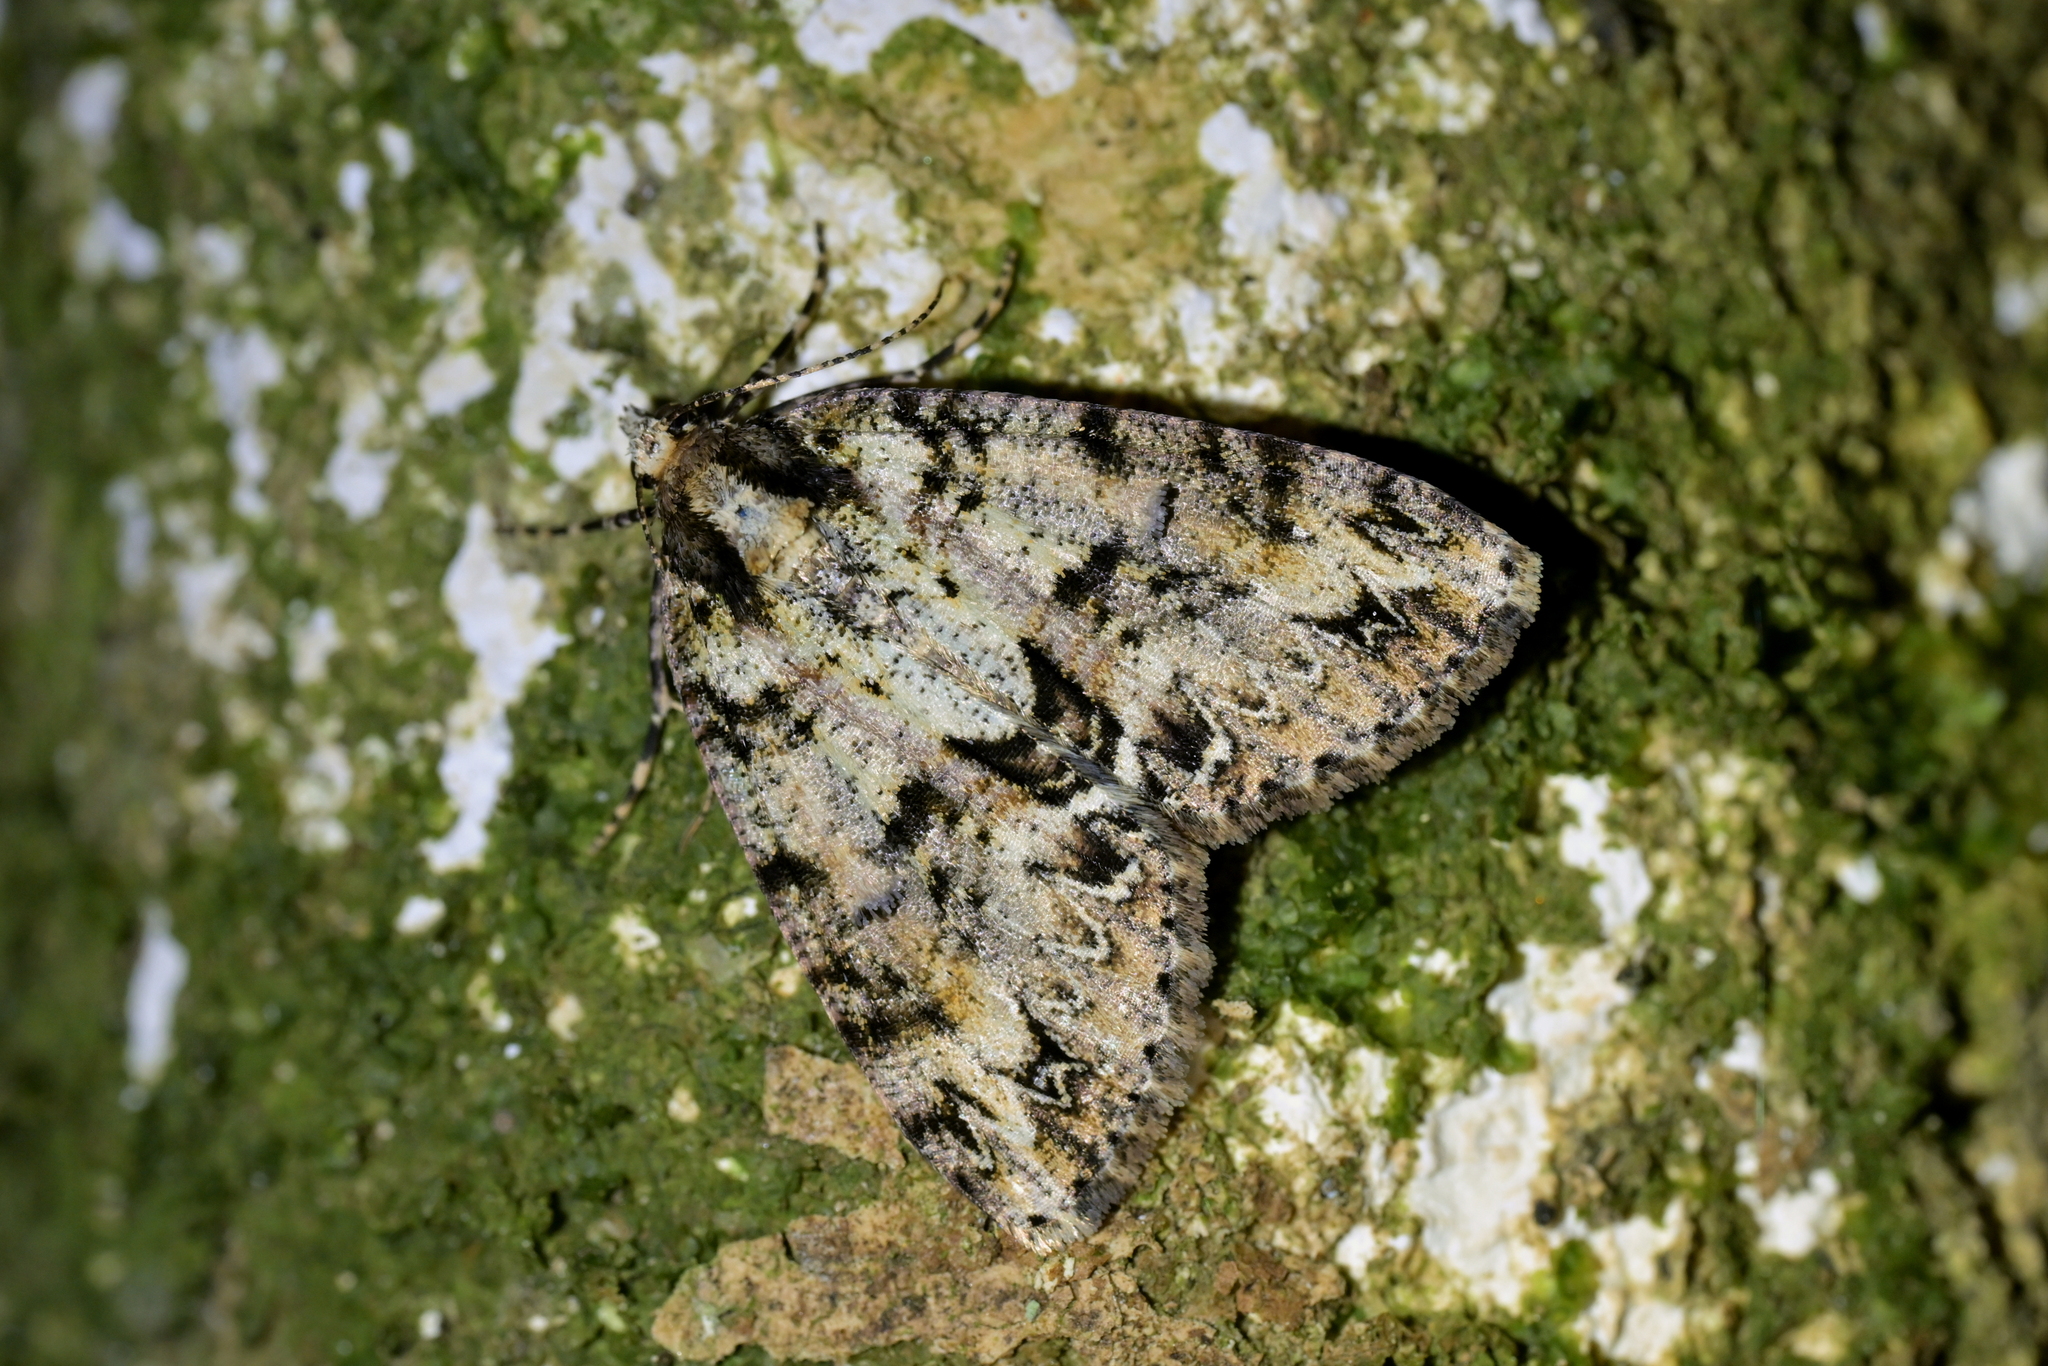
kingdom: Animalia
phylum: Arthropoda
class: Insecta
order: Lepidoptera
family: Geometridae
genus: Pseudocoremia
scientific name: Pseudocoremia suavis
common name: Common forest looper
